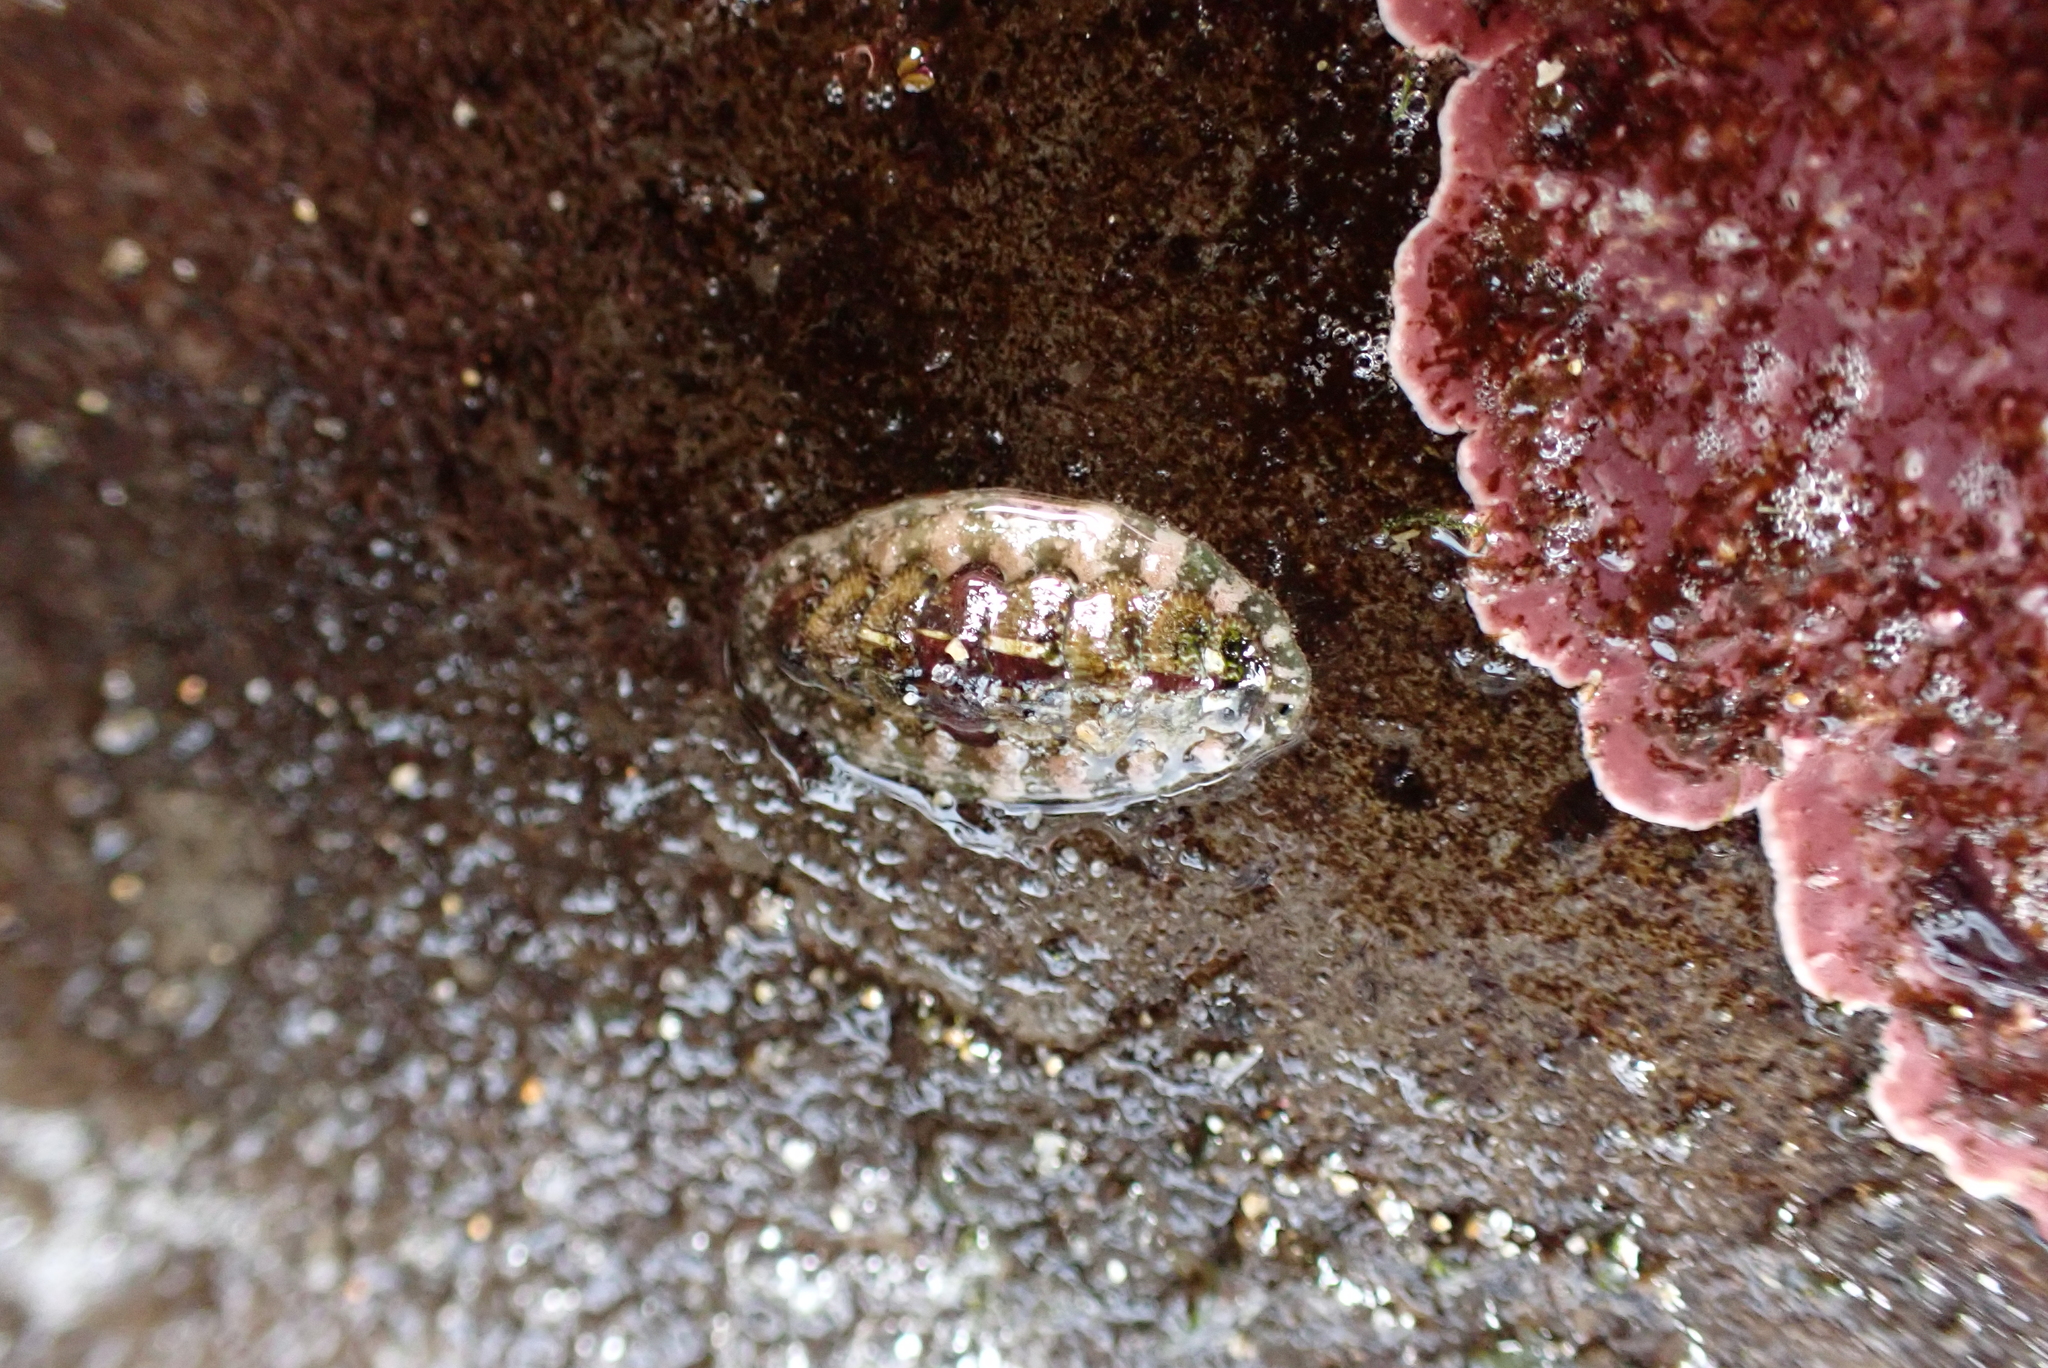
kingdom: Animalia
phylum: Mollusca
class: Polyplacophora
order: Chitonida
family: Tonicellidae
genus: Cyanoplax
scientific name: Cyanoplax dentiens
